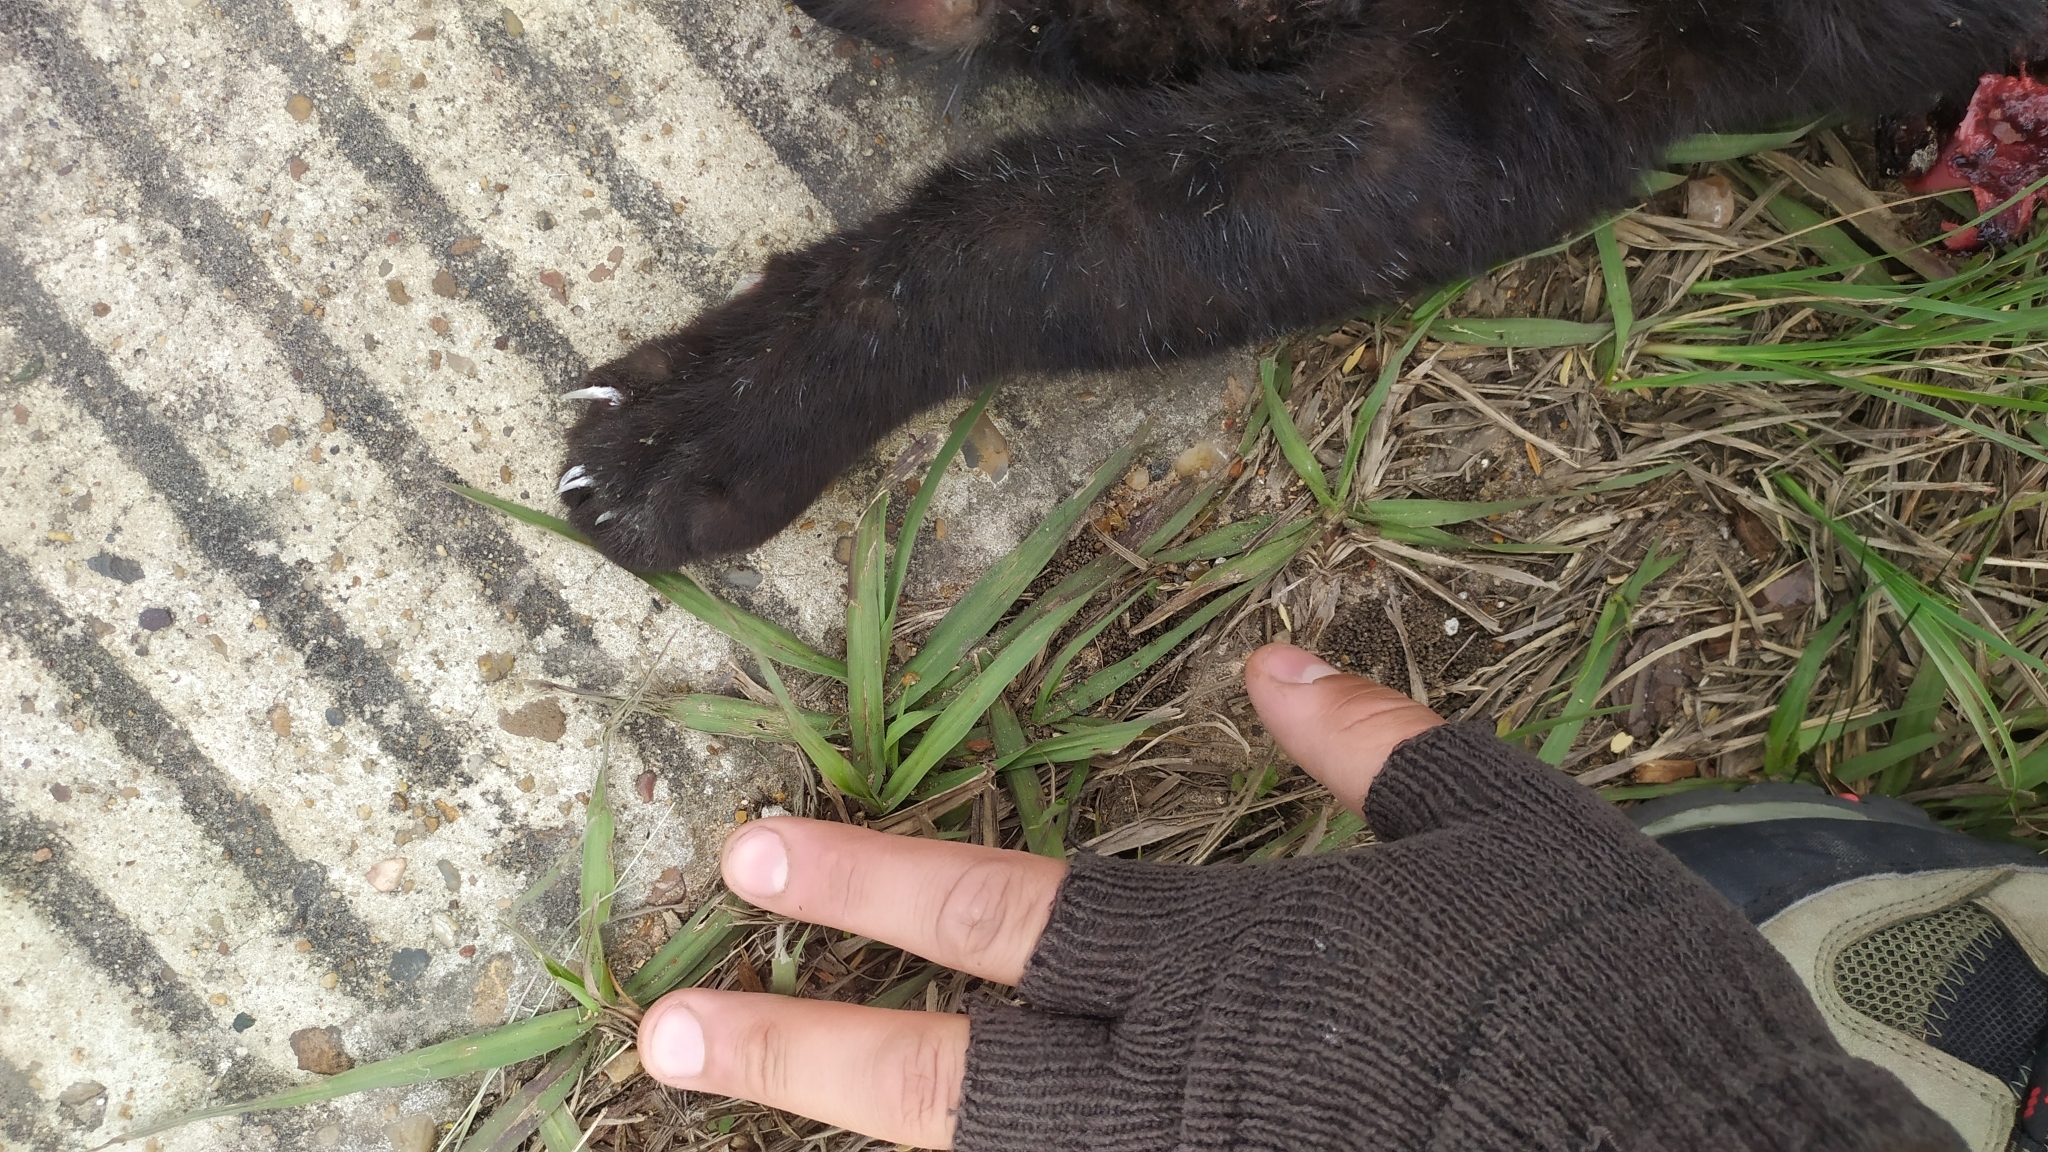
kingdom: Animalia
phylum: Chordata
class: Mammalia
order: Carnivora
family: Felidae
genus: Leopardus
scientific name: Leopardus geoffroyi
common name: Geoffroy's cat
